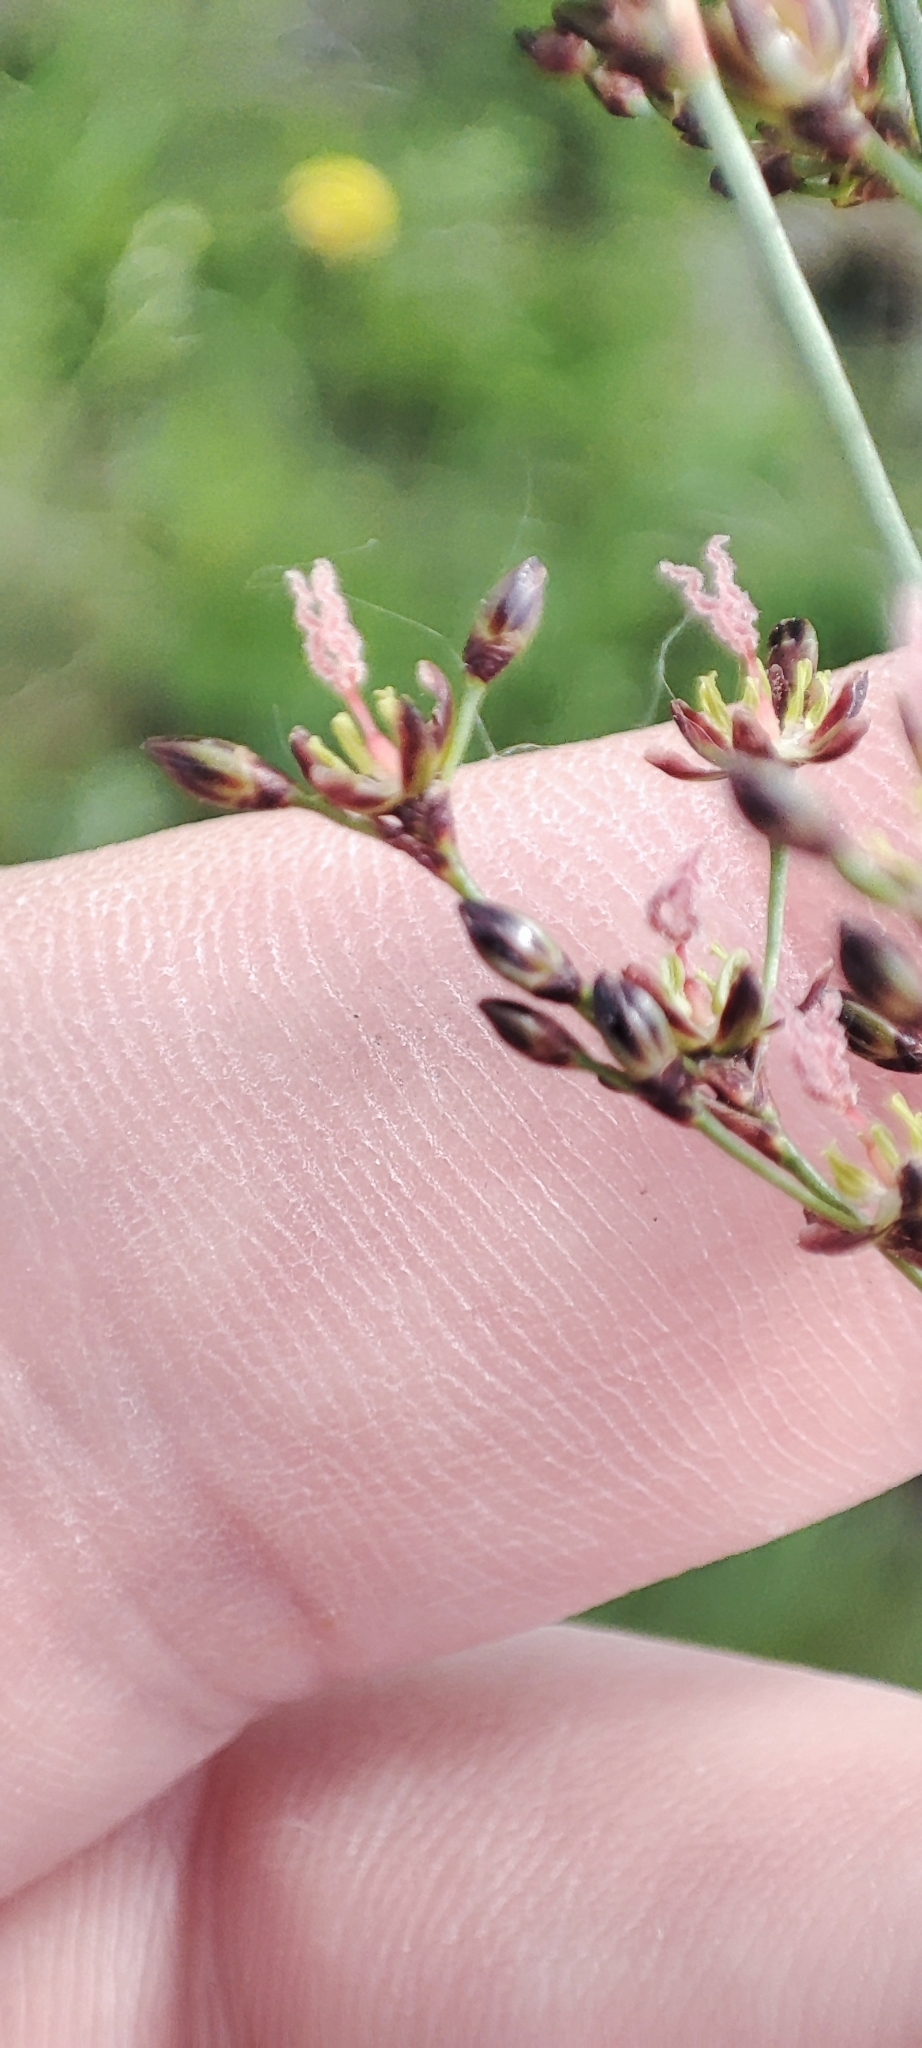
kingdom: Plantae
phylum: Tracheophyta
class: Liliopsida
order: Poales
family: Juncaceae
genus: Juncus
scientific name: Juncus compressus
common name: Round-fruited rush
